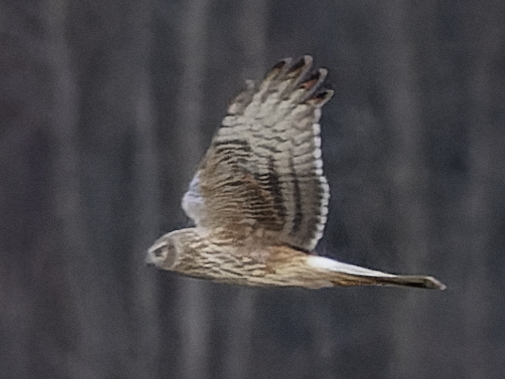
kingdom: Animalia
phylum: Chordata
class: Aves
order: Accipitriformes
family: Accipitridae
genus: Circus
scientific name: Circus cyaneus
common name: Hen harrier
